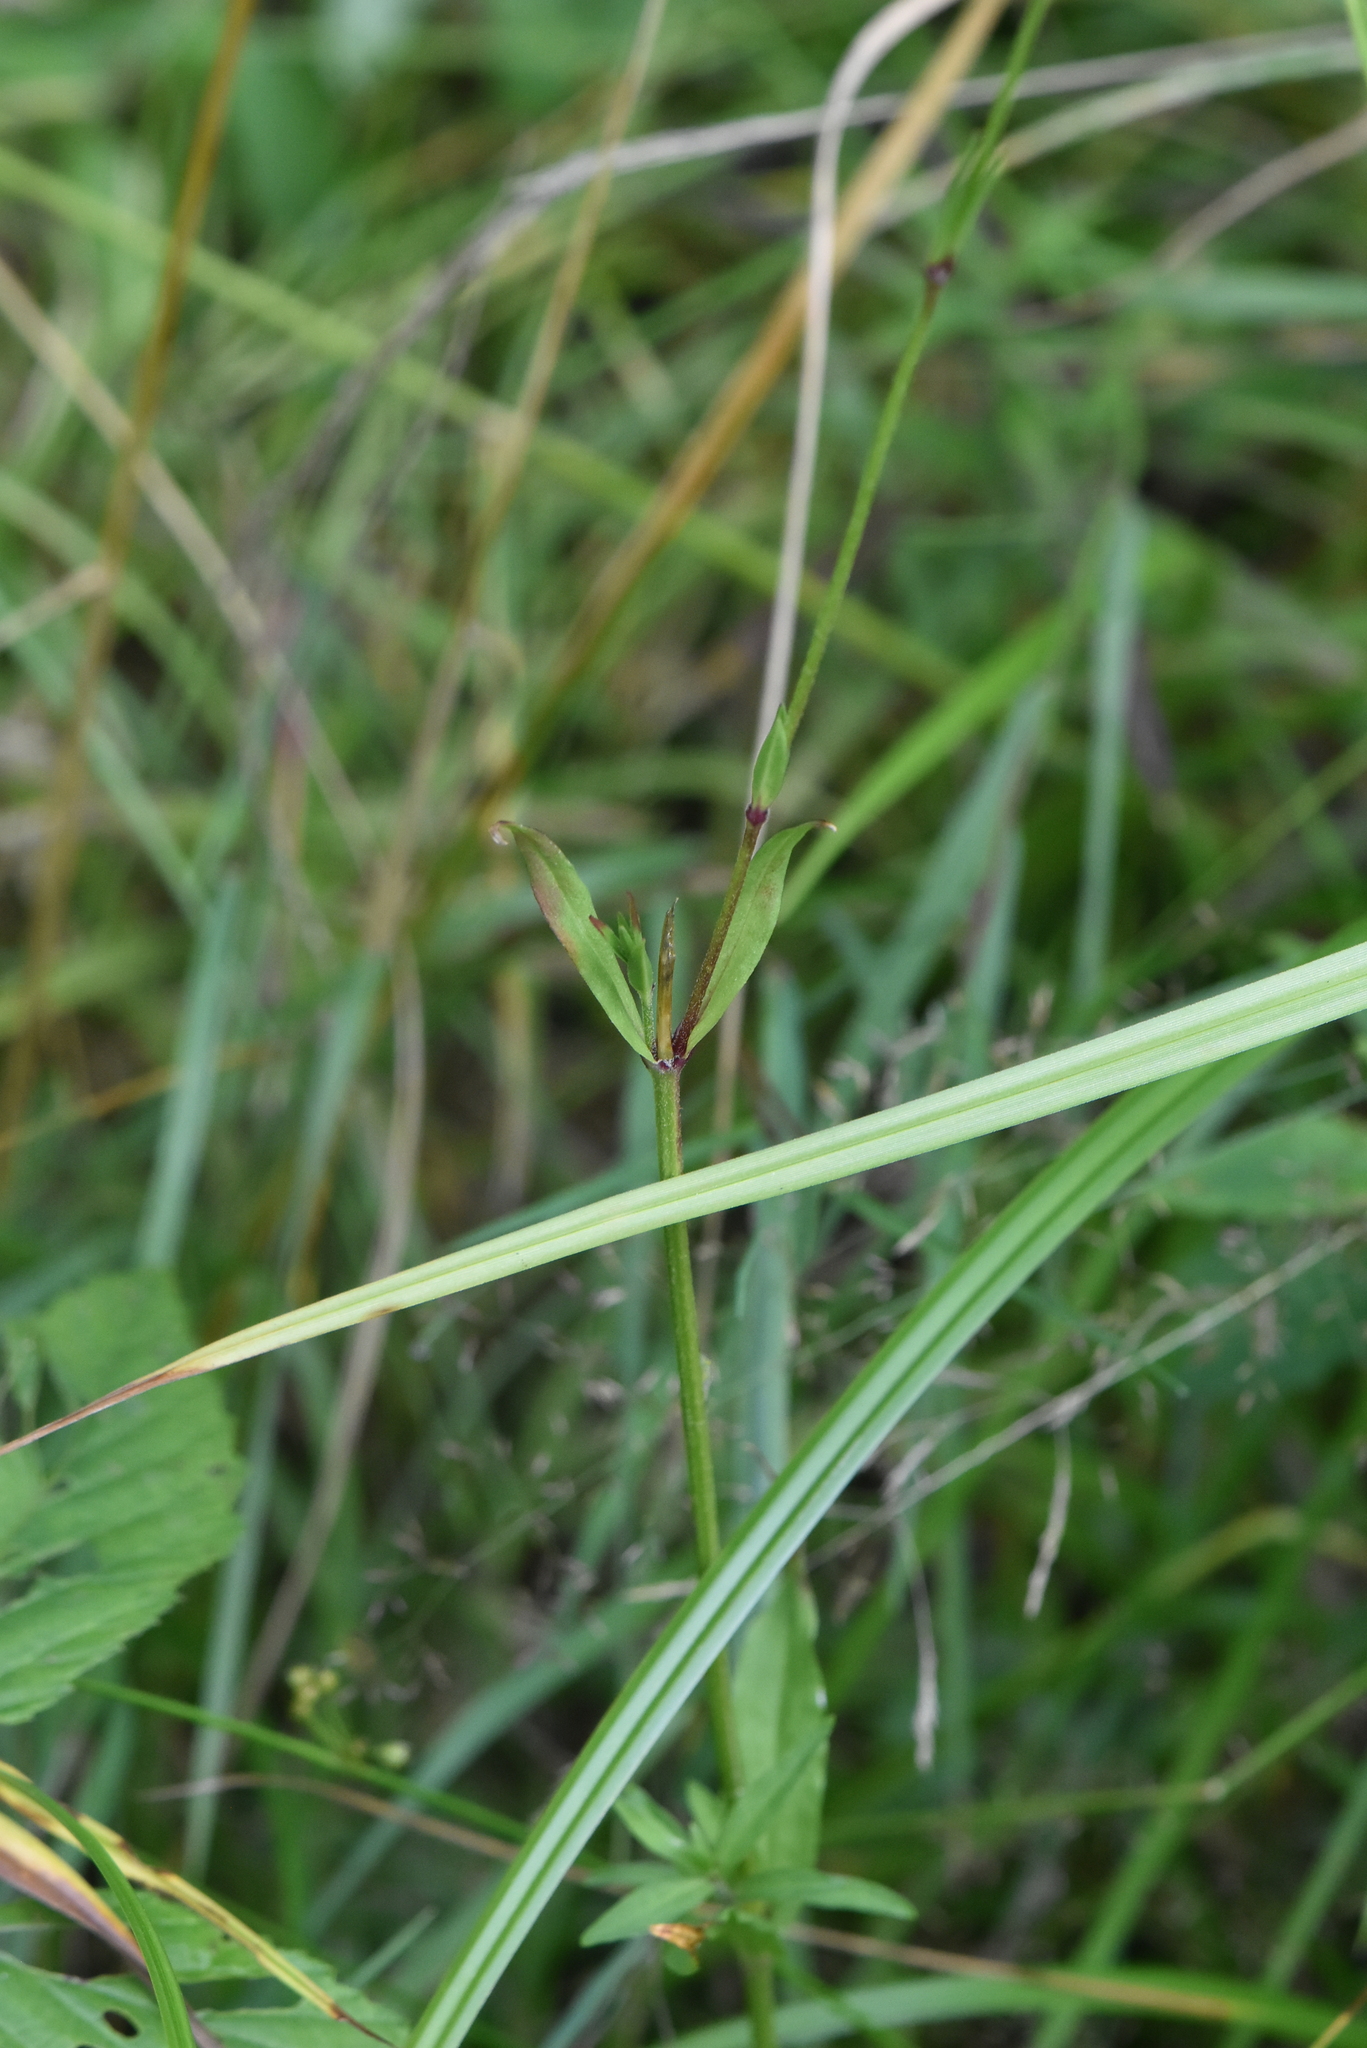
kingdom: Plantae
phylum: Tracheophyta
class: Magnoliopsida
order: Caryophyllales
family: Caryophyllaceae
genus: Silene
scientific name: Silene flos-cuculi
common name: Ragged-robin
